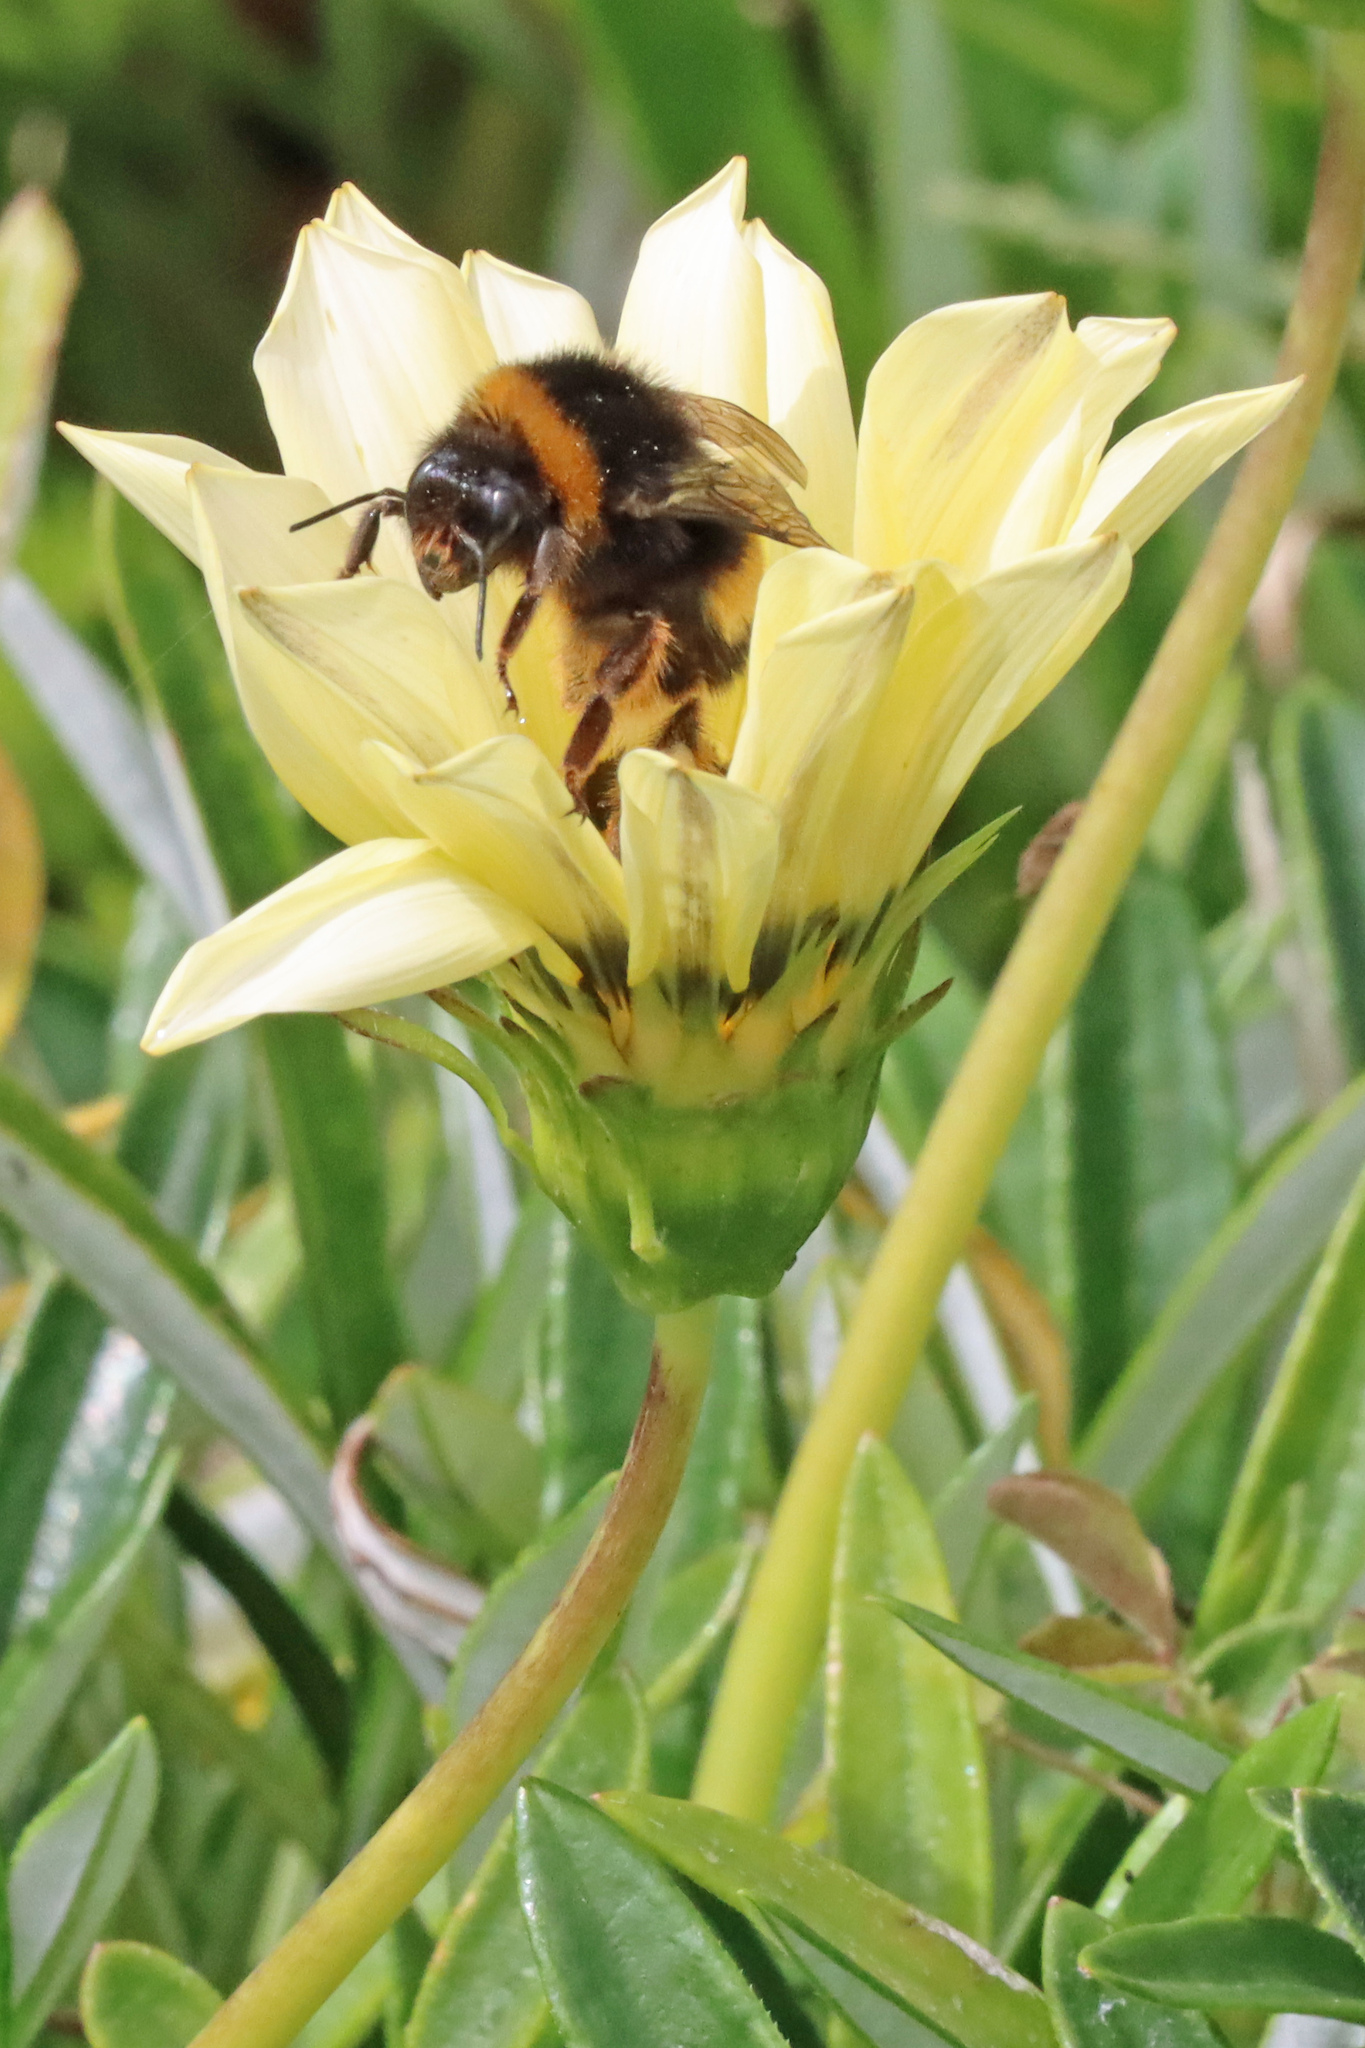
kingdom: Animalia
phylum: Arthropoda
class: Insecta
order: Hymenoptera
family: Apidae
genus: Bombus
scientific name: Bombus terrestris
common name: Buff-tailed bumblebee
